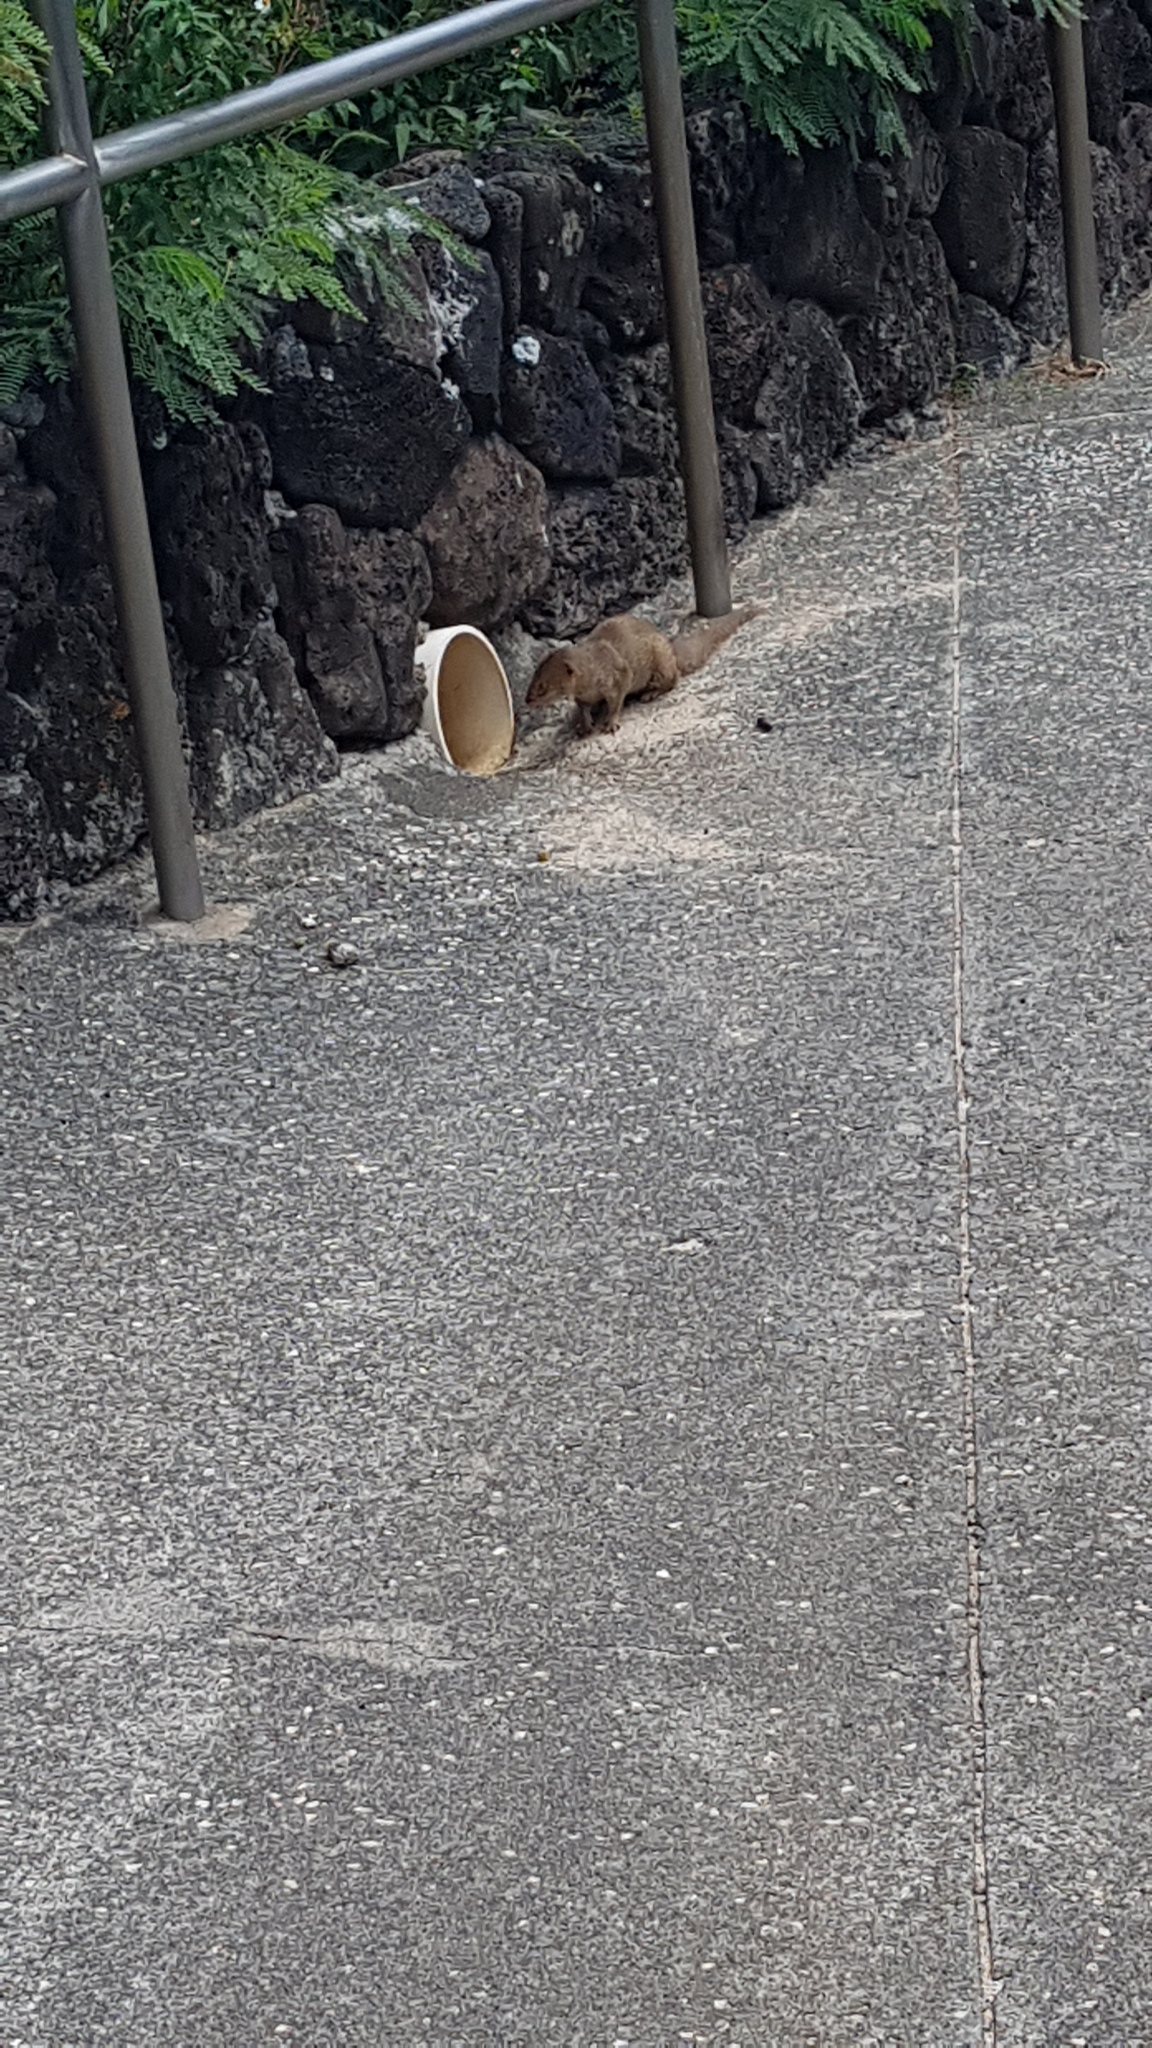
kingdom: Animalia
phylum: Chordata
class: Mammalia
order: Carnivora
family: Herpestidae
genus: Herpestes
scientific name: Herpestes javanicus
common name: Small asian mongoose
